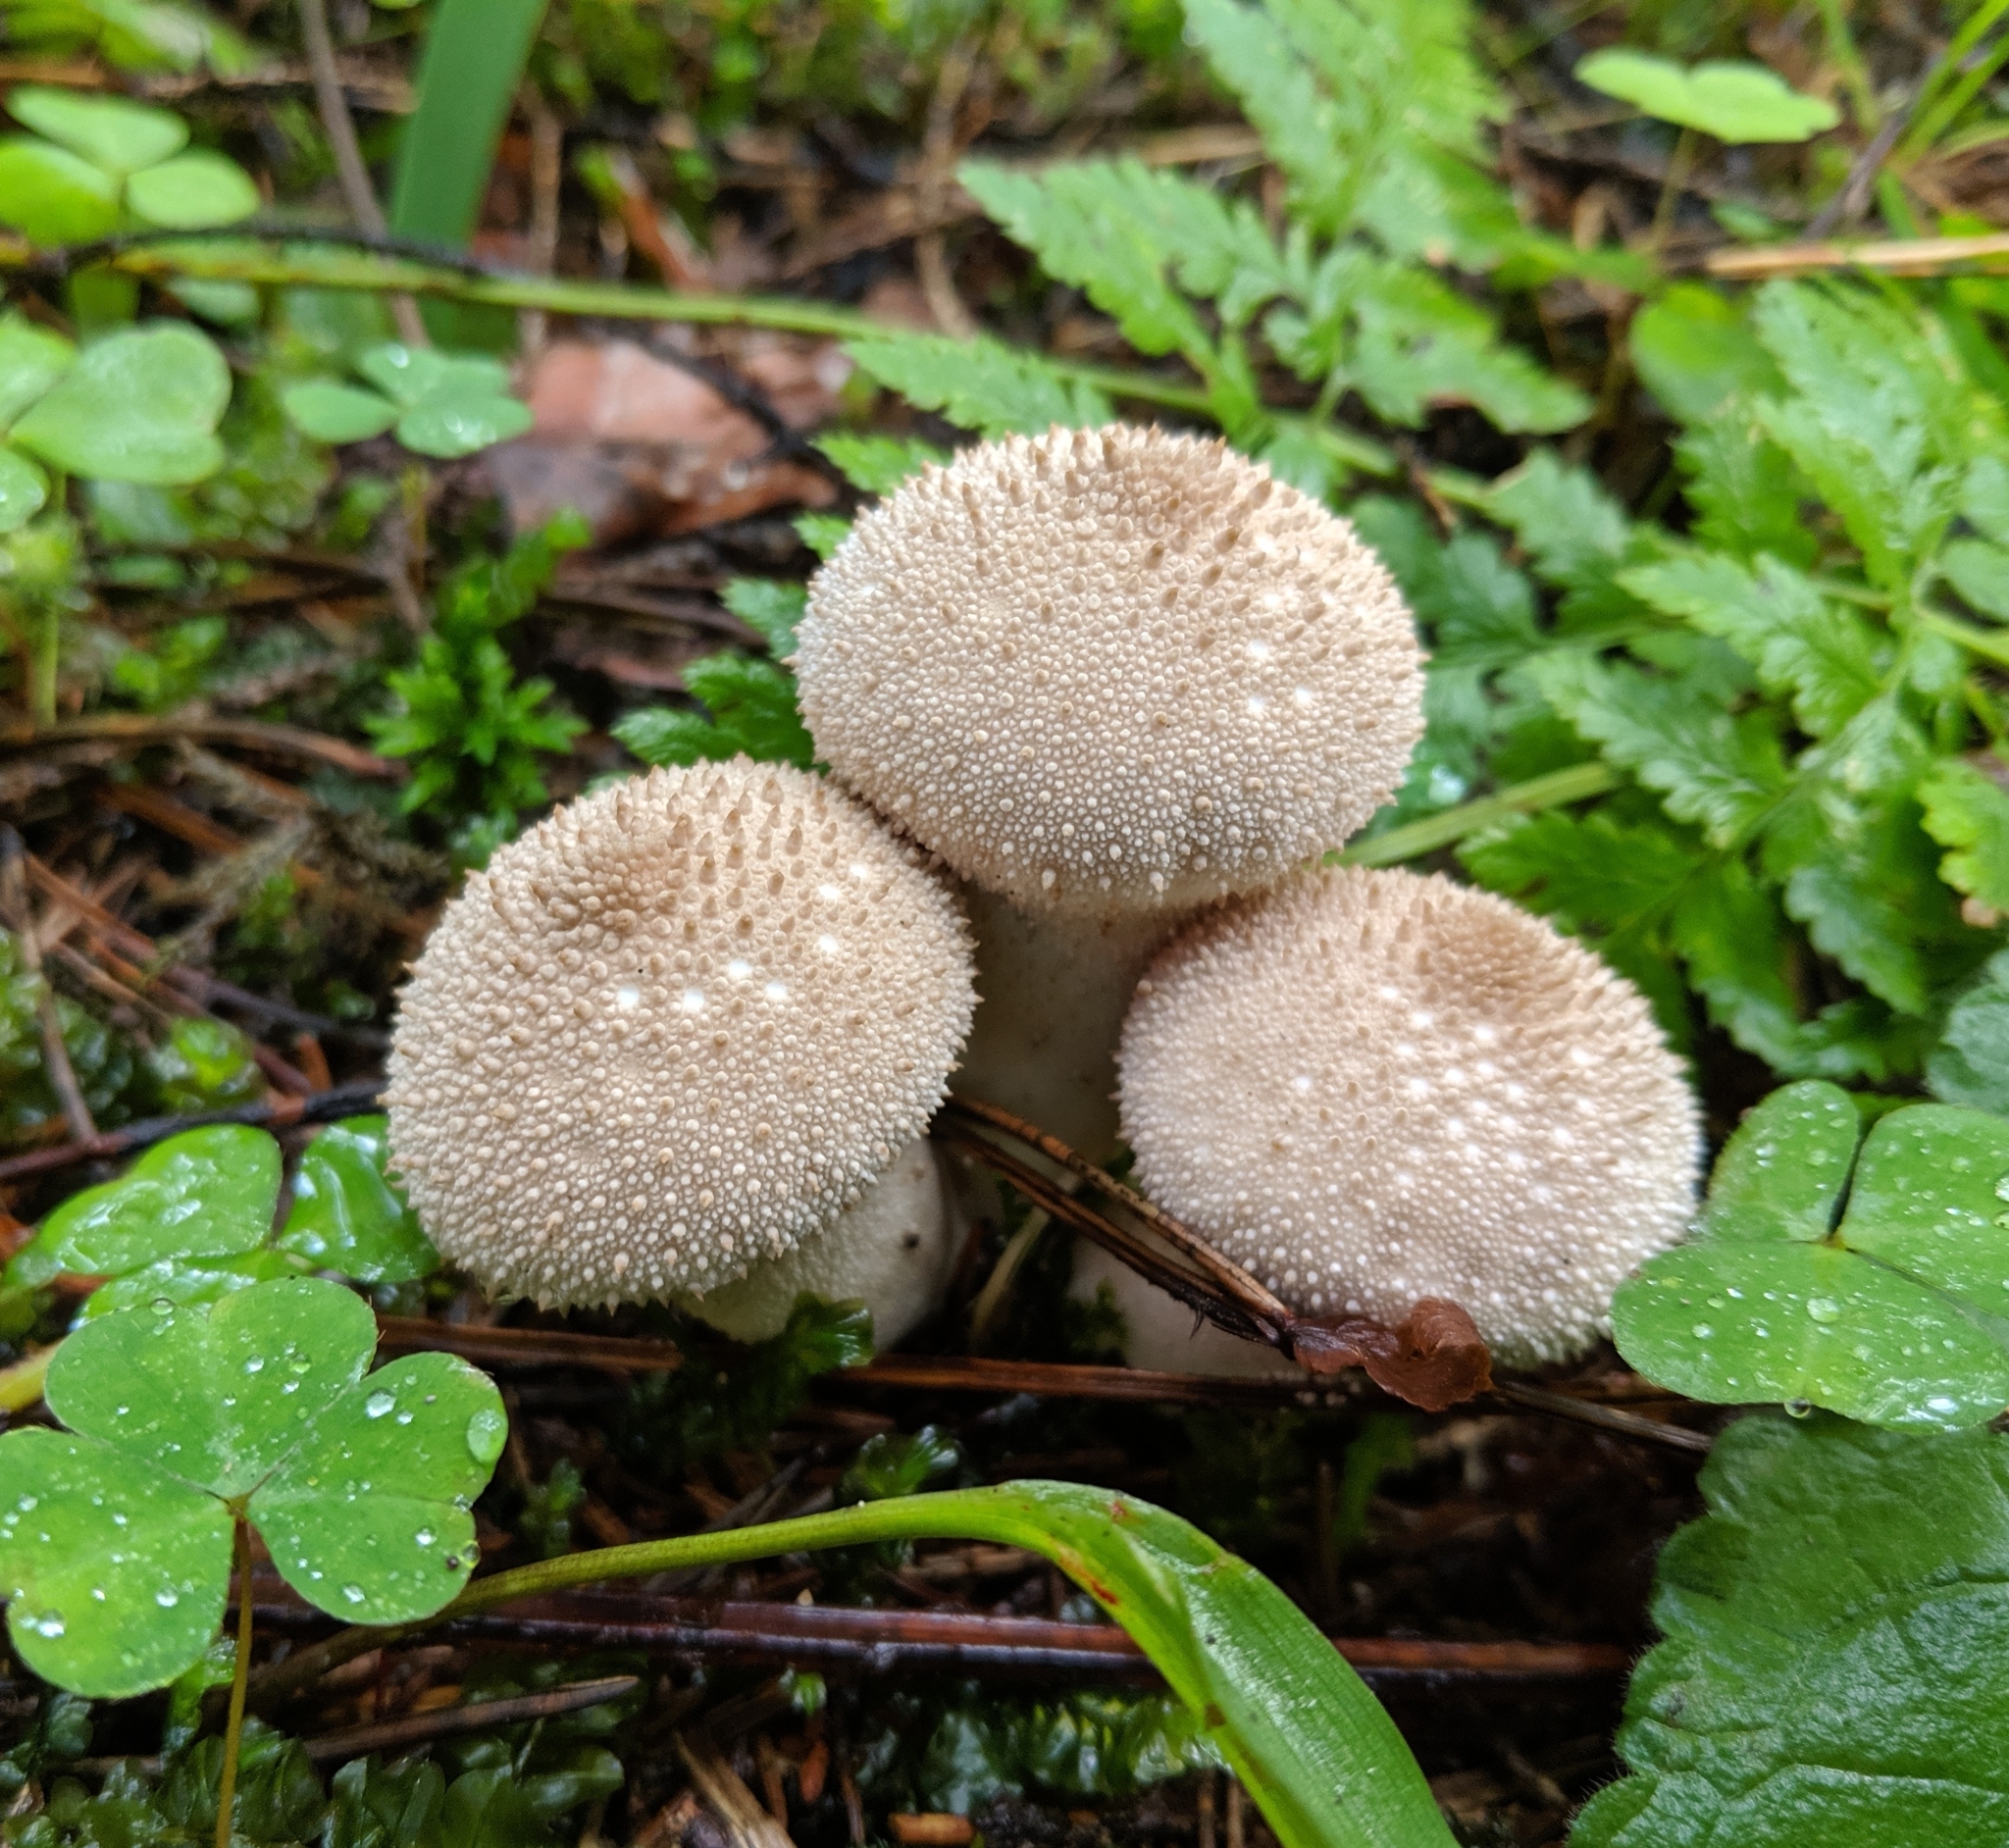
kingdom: Fungi
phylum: Basidiomycota
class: Agaricomycetes
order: Agaricales
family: Lycoperdaceae
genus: Lycoperdon
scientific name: Lycoperdon perlatum
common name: Common puffball
